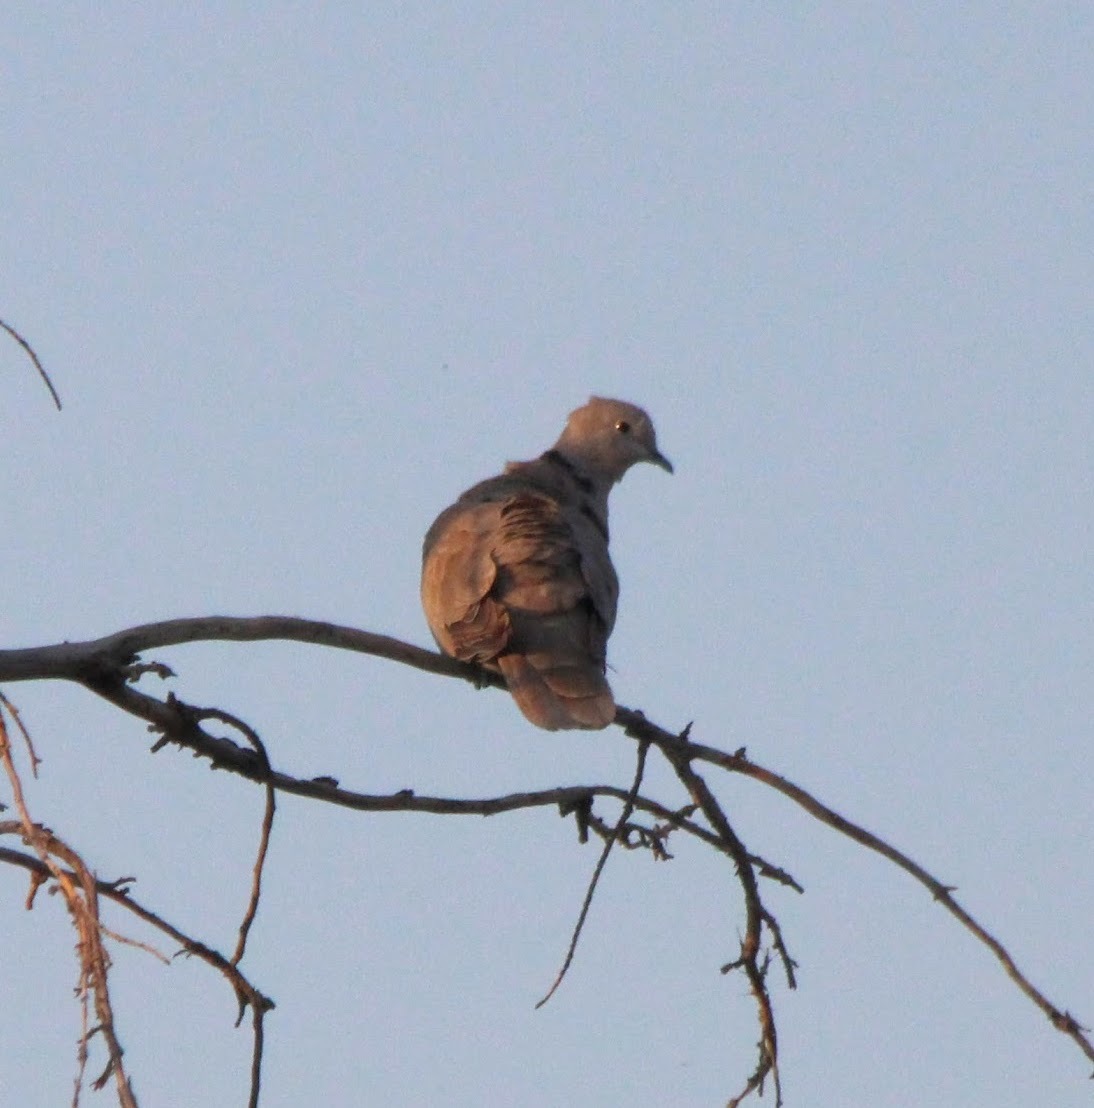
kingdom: Animalia
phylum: Chordata
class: Aves
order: Columbiformes
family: Columbidae
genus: Streptopelia
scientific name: Streptopelia decaocto
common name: Eurasian collared dove
